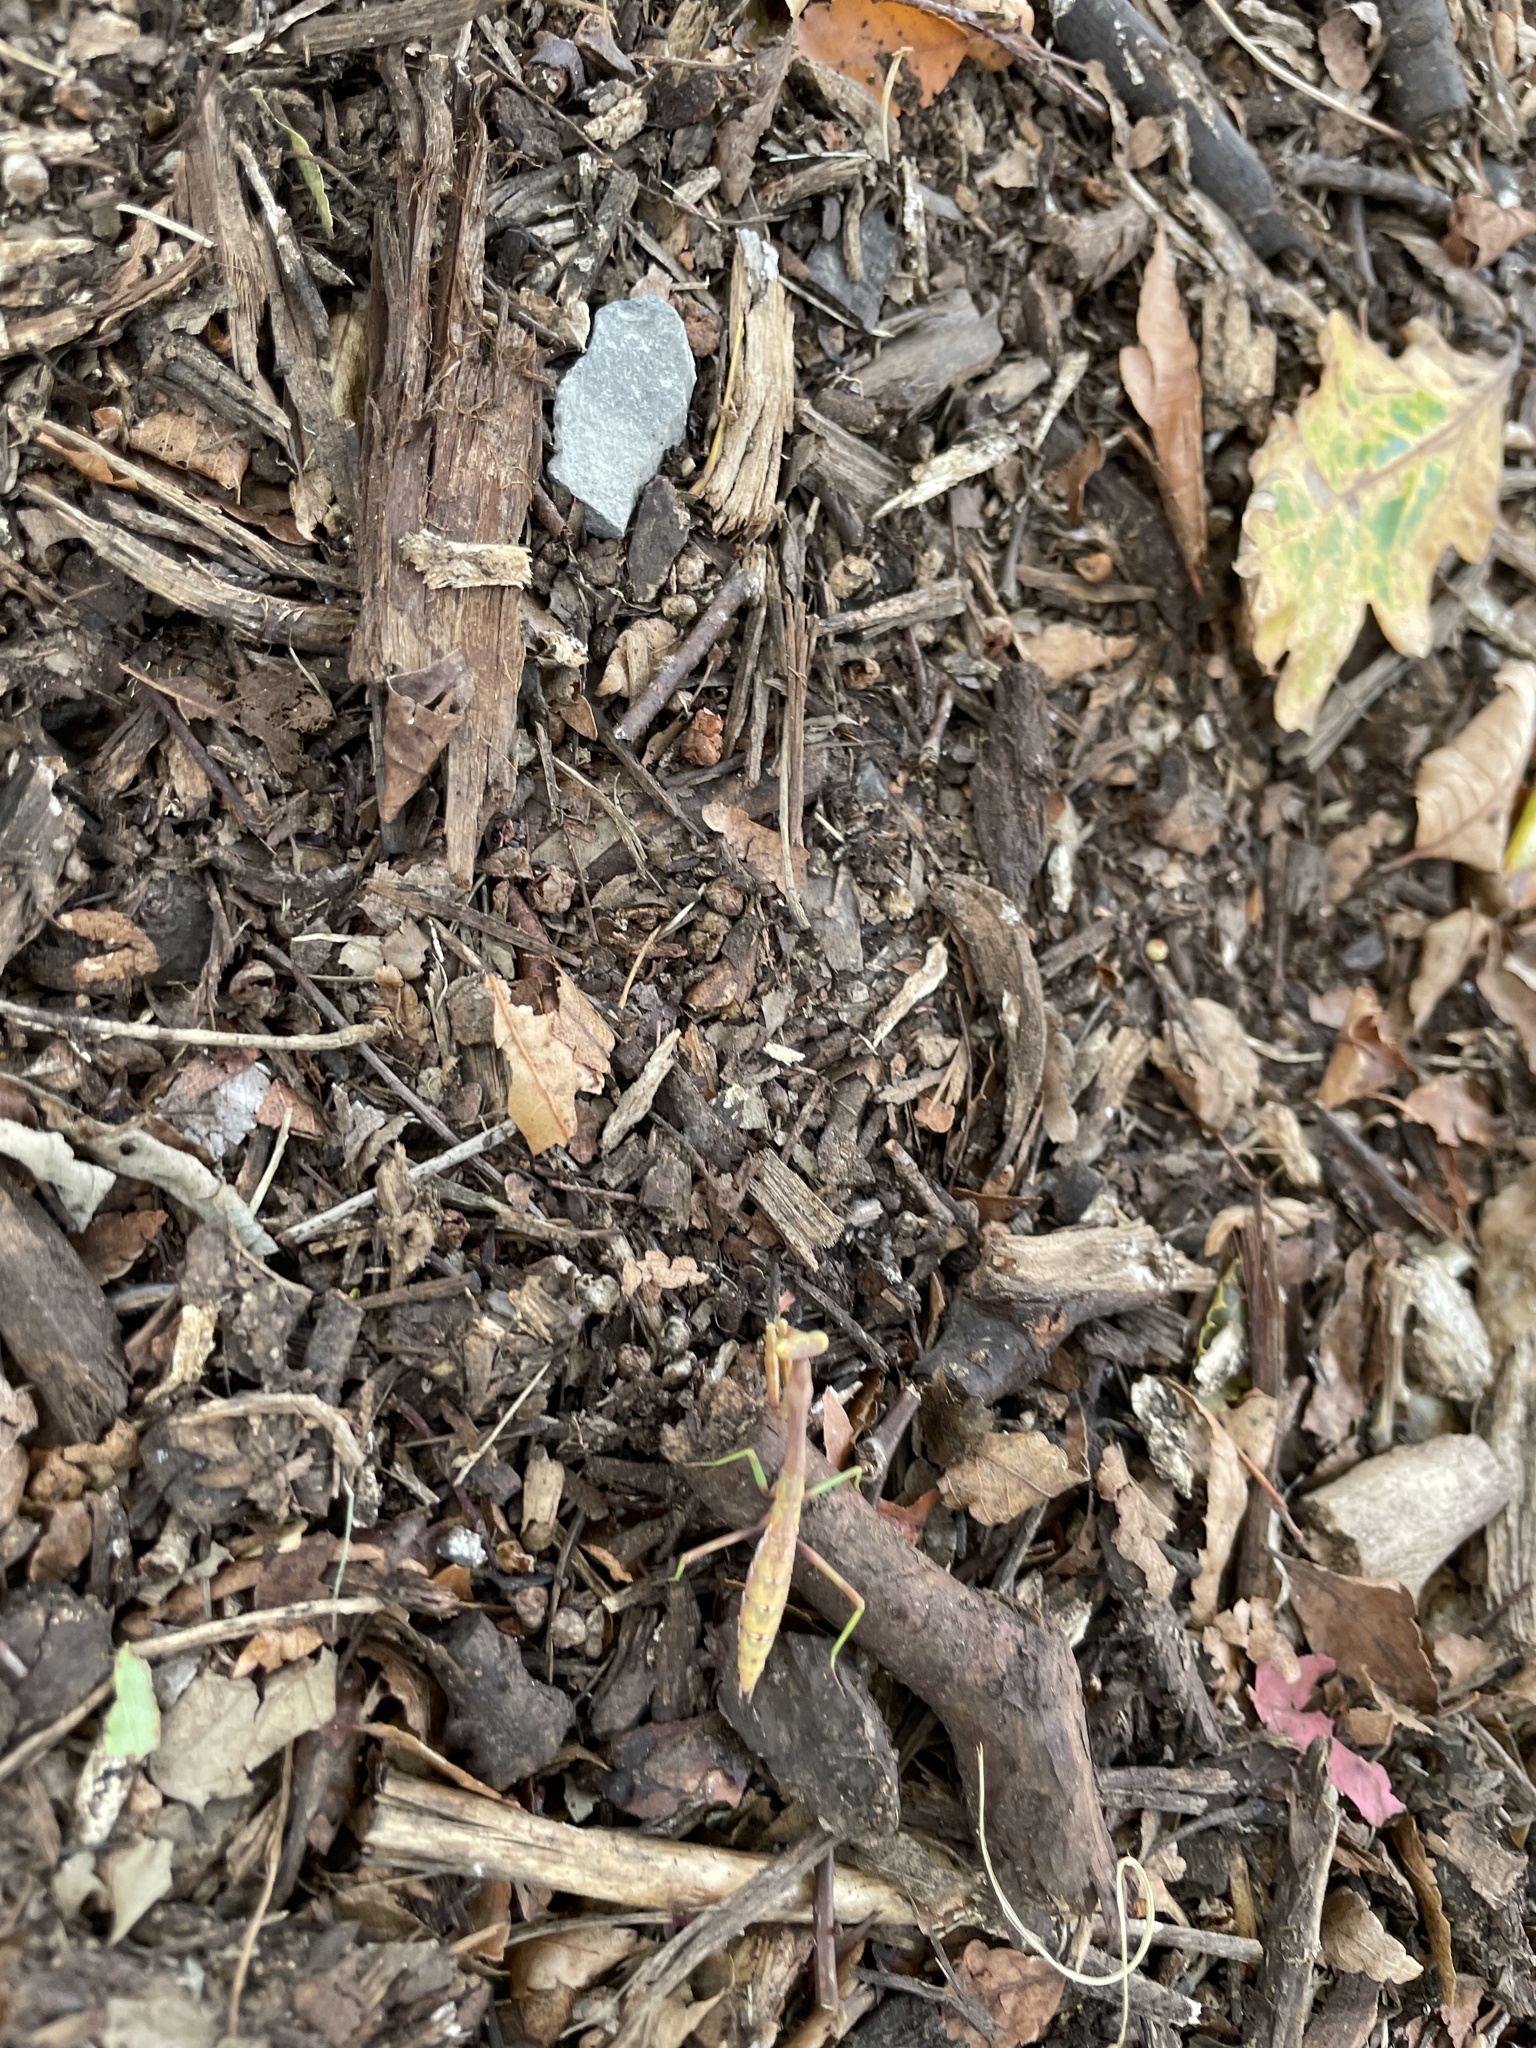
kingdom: Animalia
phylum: Arthropoda
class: Insecta
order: Mantodea
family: Mantidae
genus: Stagmomantis
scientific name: Stagmomantis carolina
